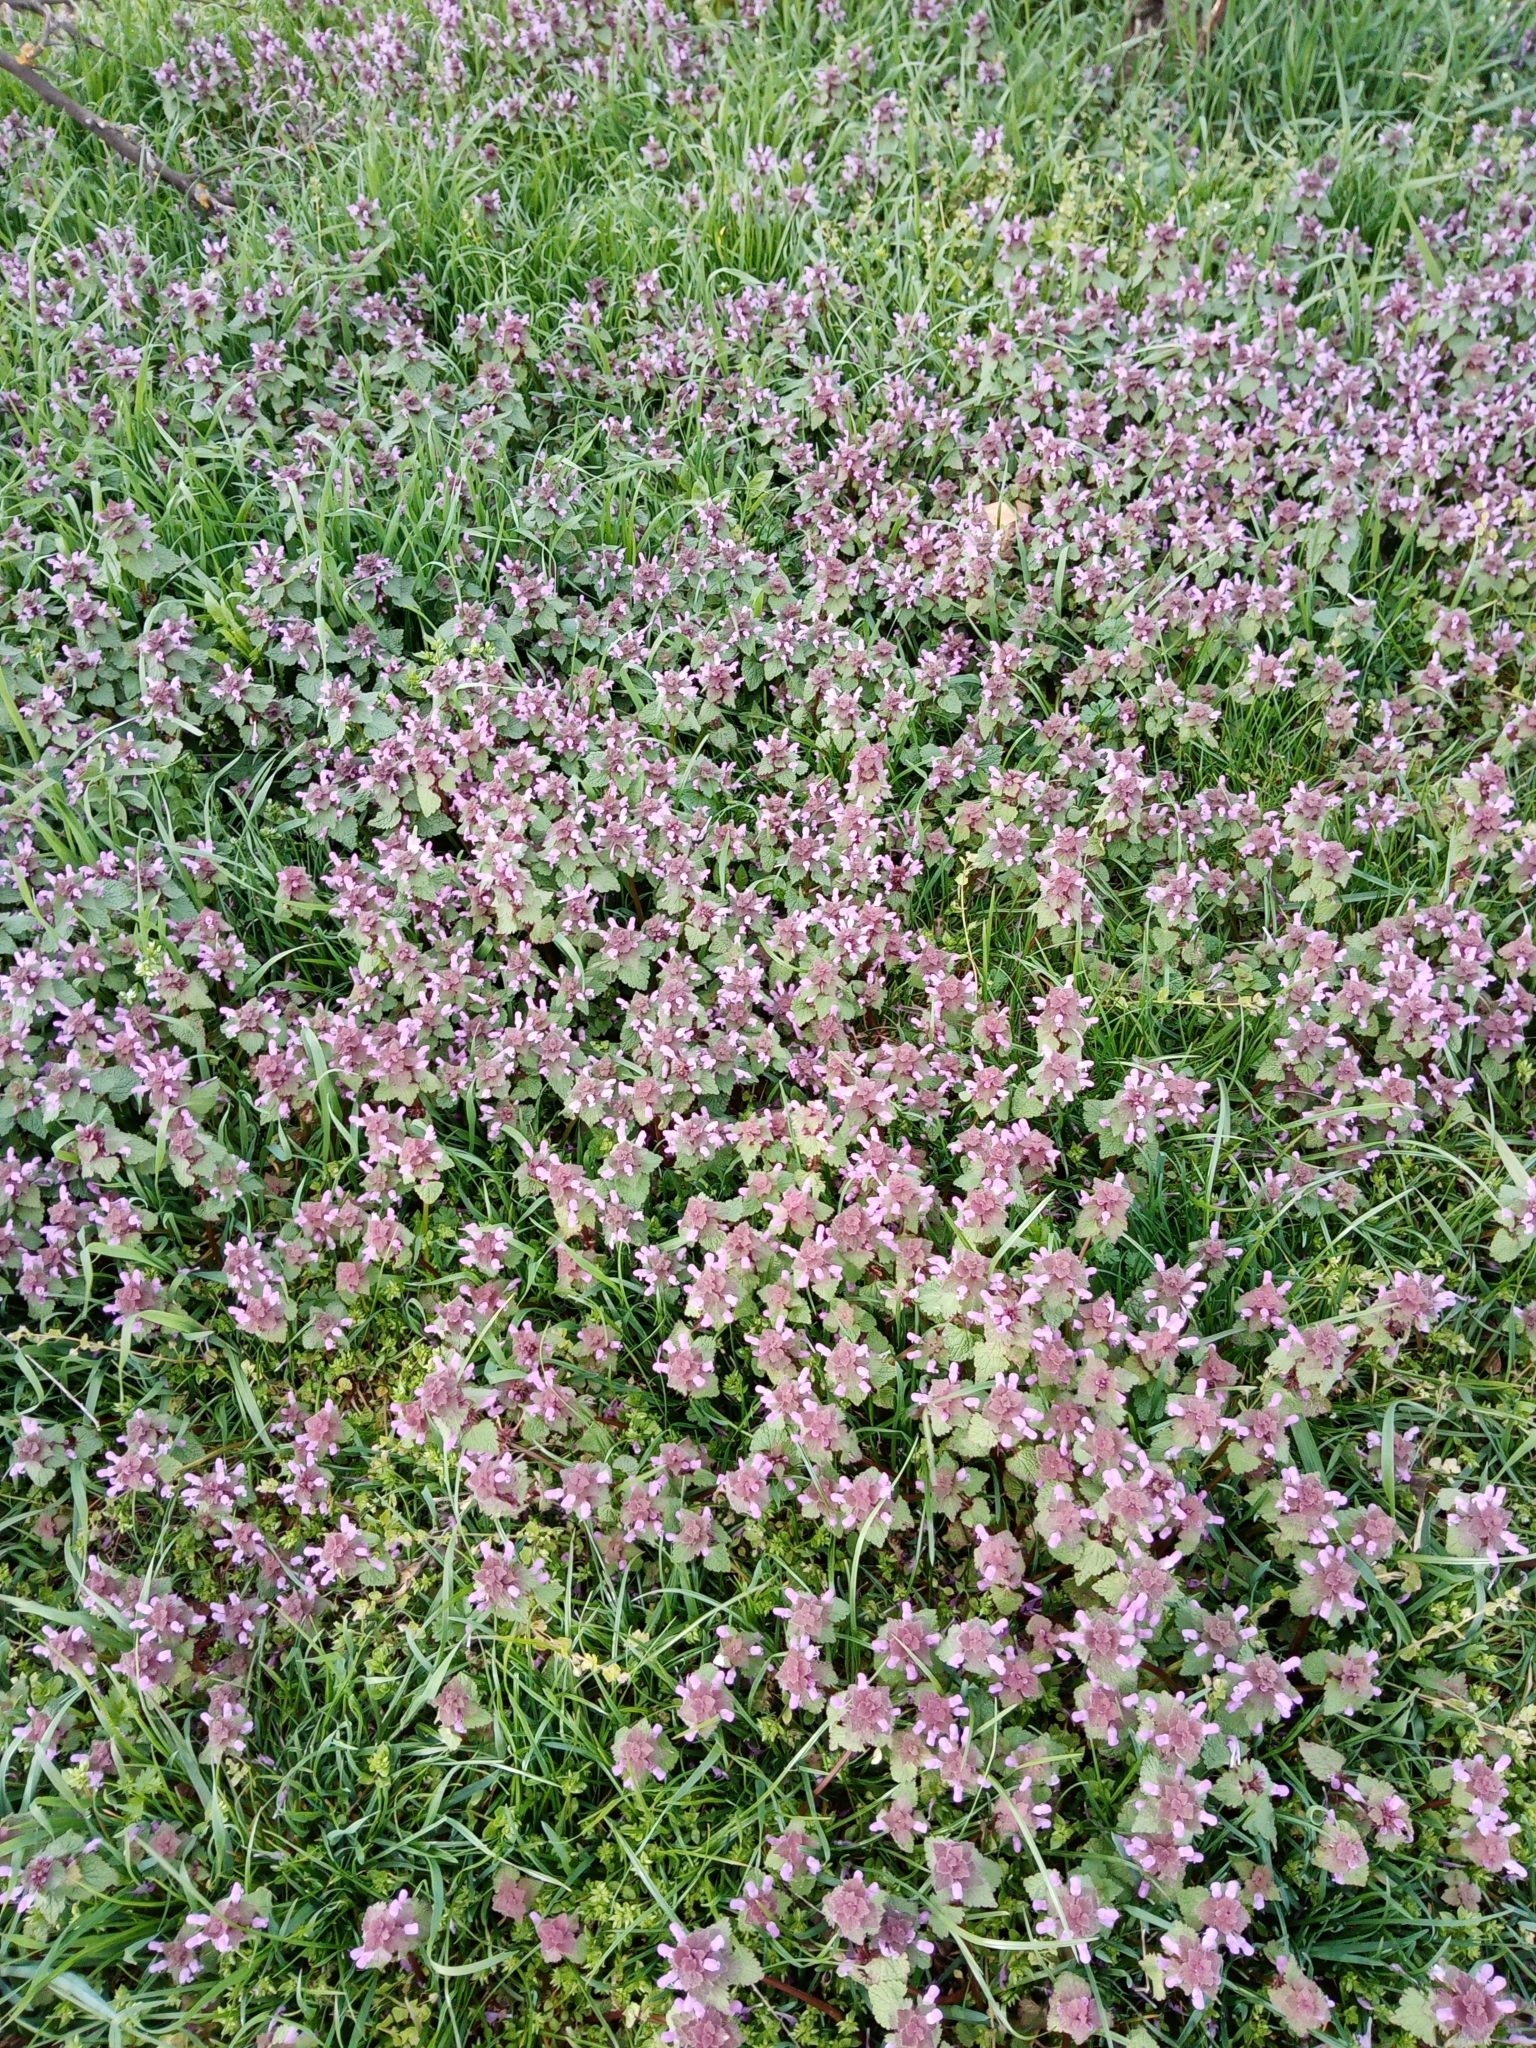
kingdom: Plantae
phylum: Tracheophyta
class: Magnoliopsida
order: Lamiales
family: Lamiaceae
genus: Lamium
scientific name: Lamium purpureum
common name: Red dead-nettle
